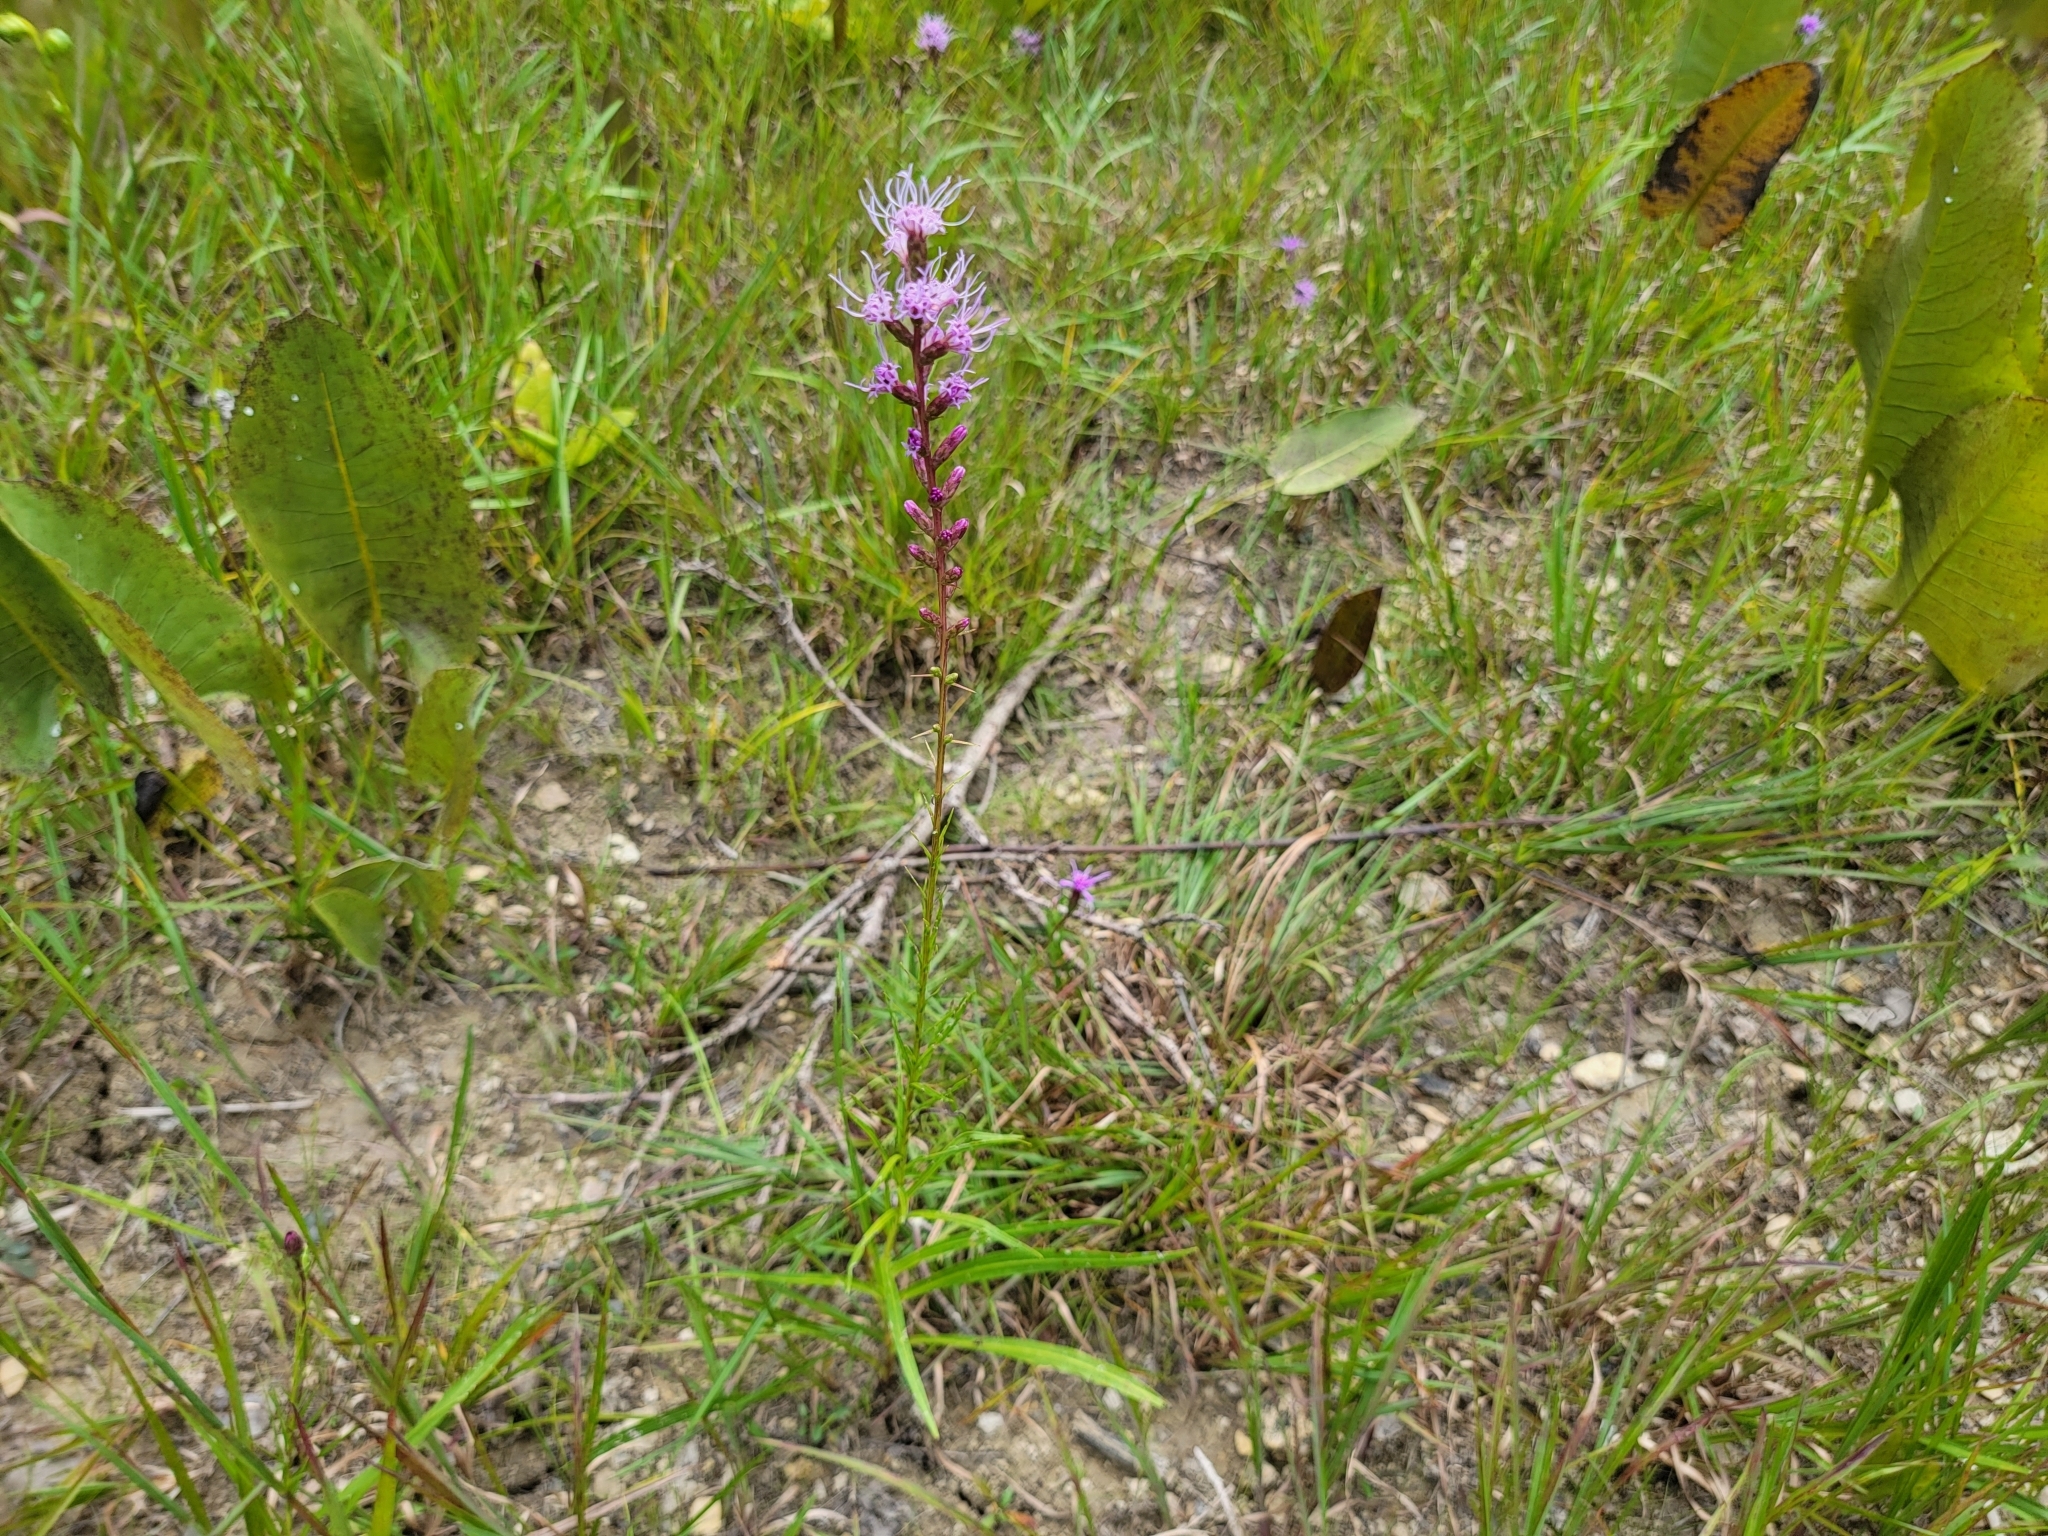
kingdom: Plantae
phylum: Tracheophyta
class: Magnoliopsida
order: Asterales
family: Asteraceae
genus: Liatris
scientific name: Liatris spicata
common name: Florist gayfeather
